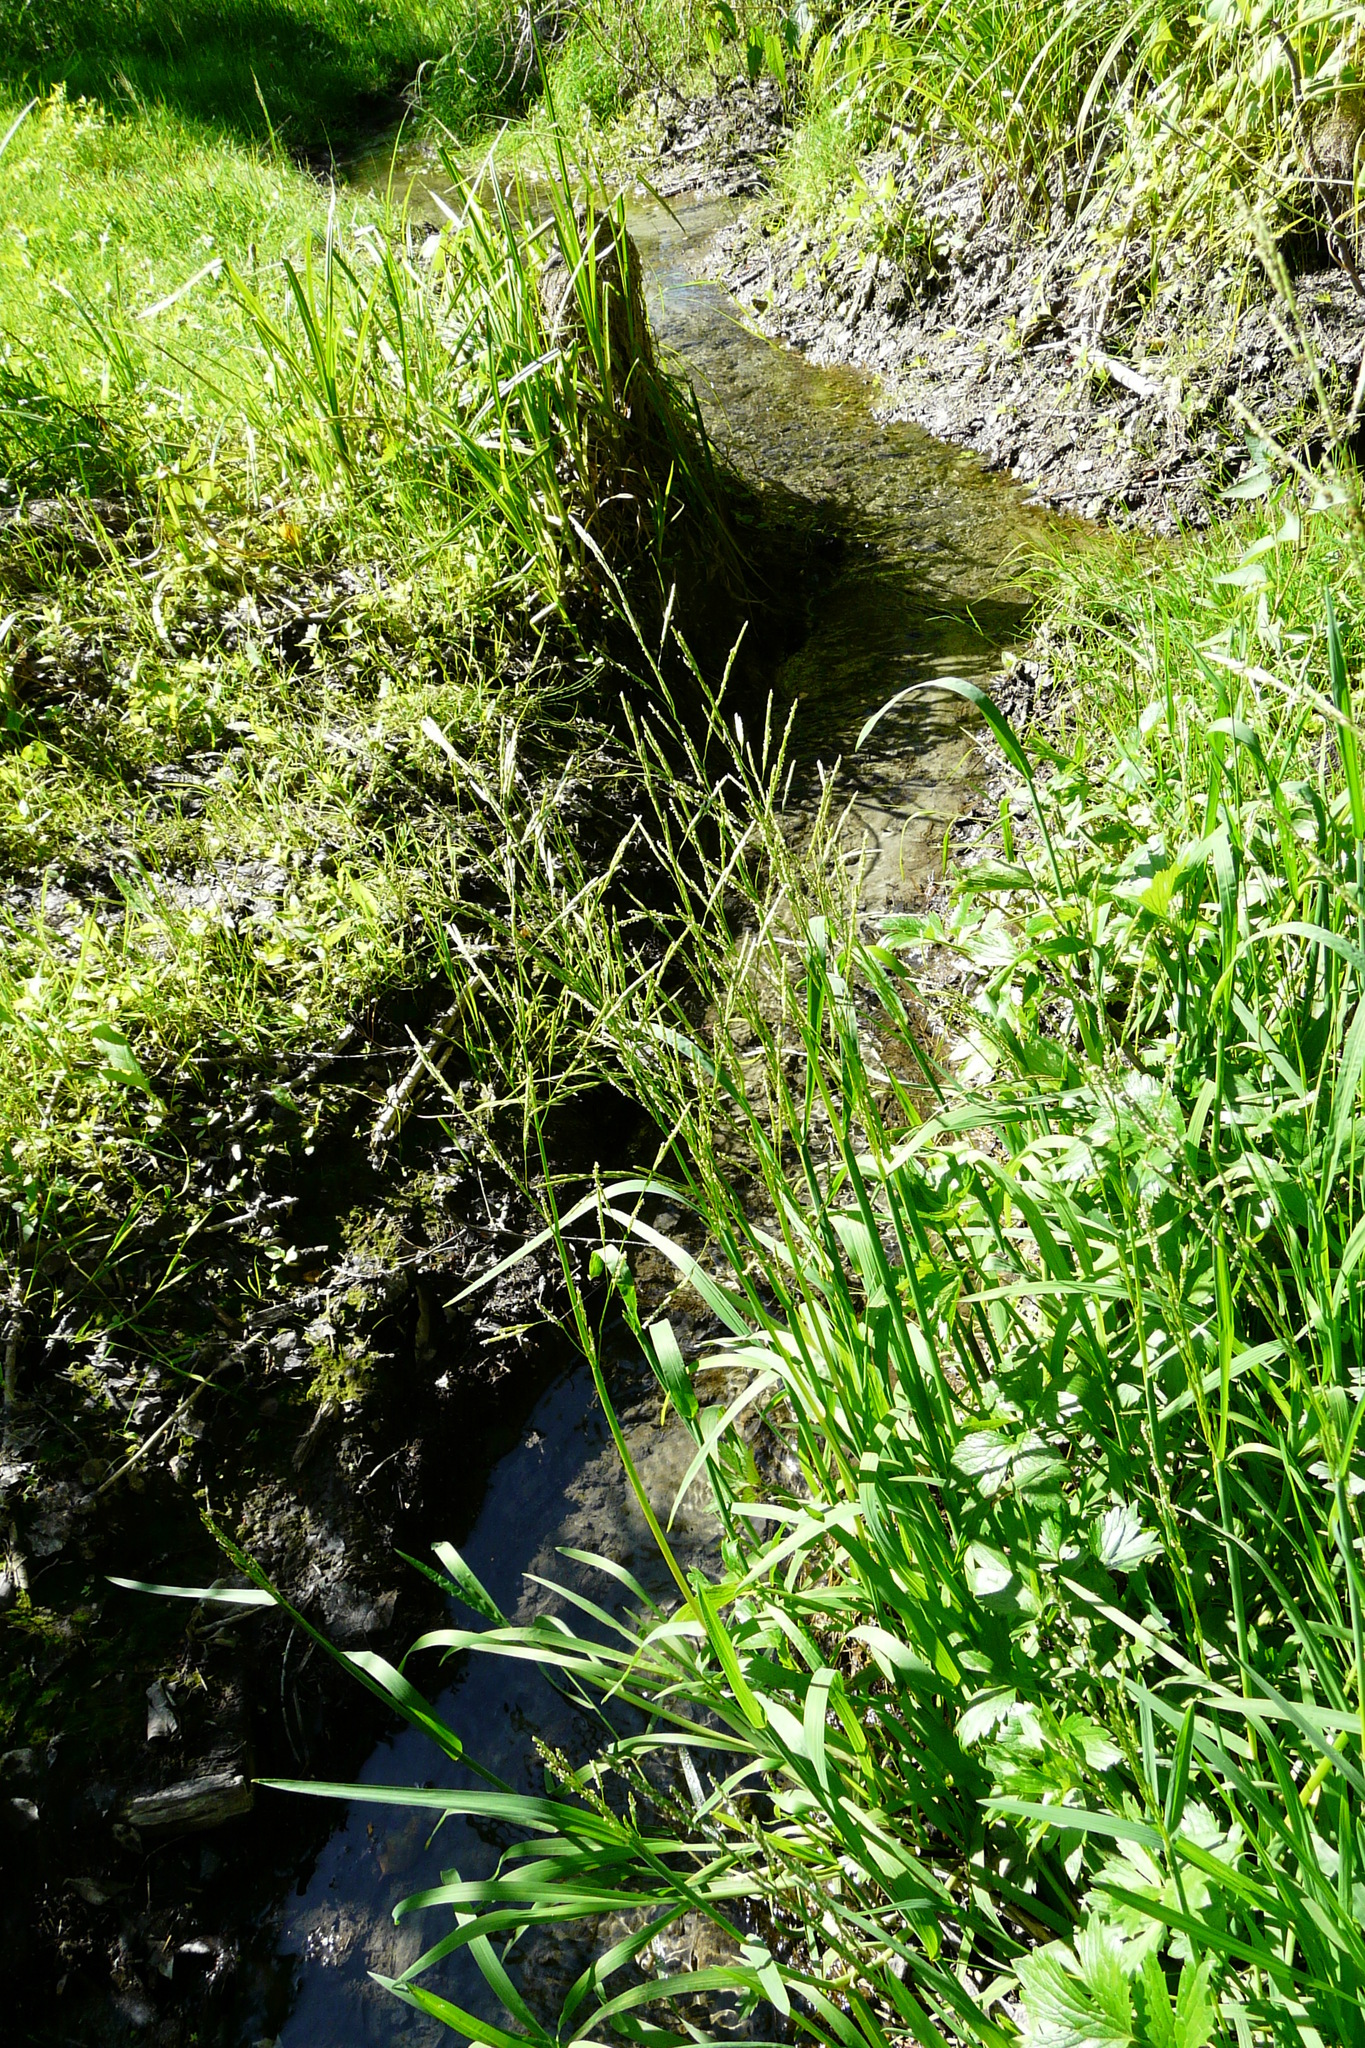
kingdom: Plantae
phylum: Tracheophyta
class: Liliopsida
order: Poales
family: Poaceae
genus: Glyceria
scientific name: Glyceria notata
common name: Plicate sweet-grass
